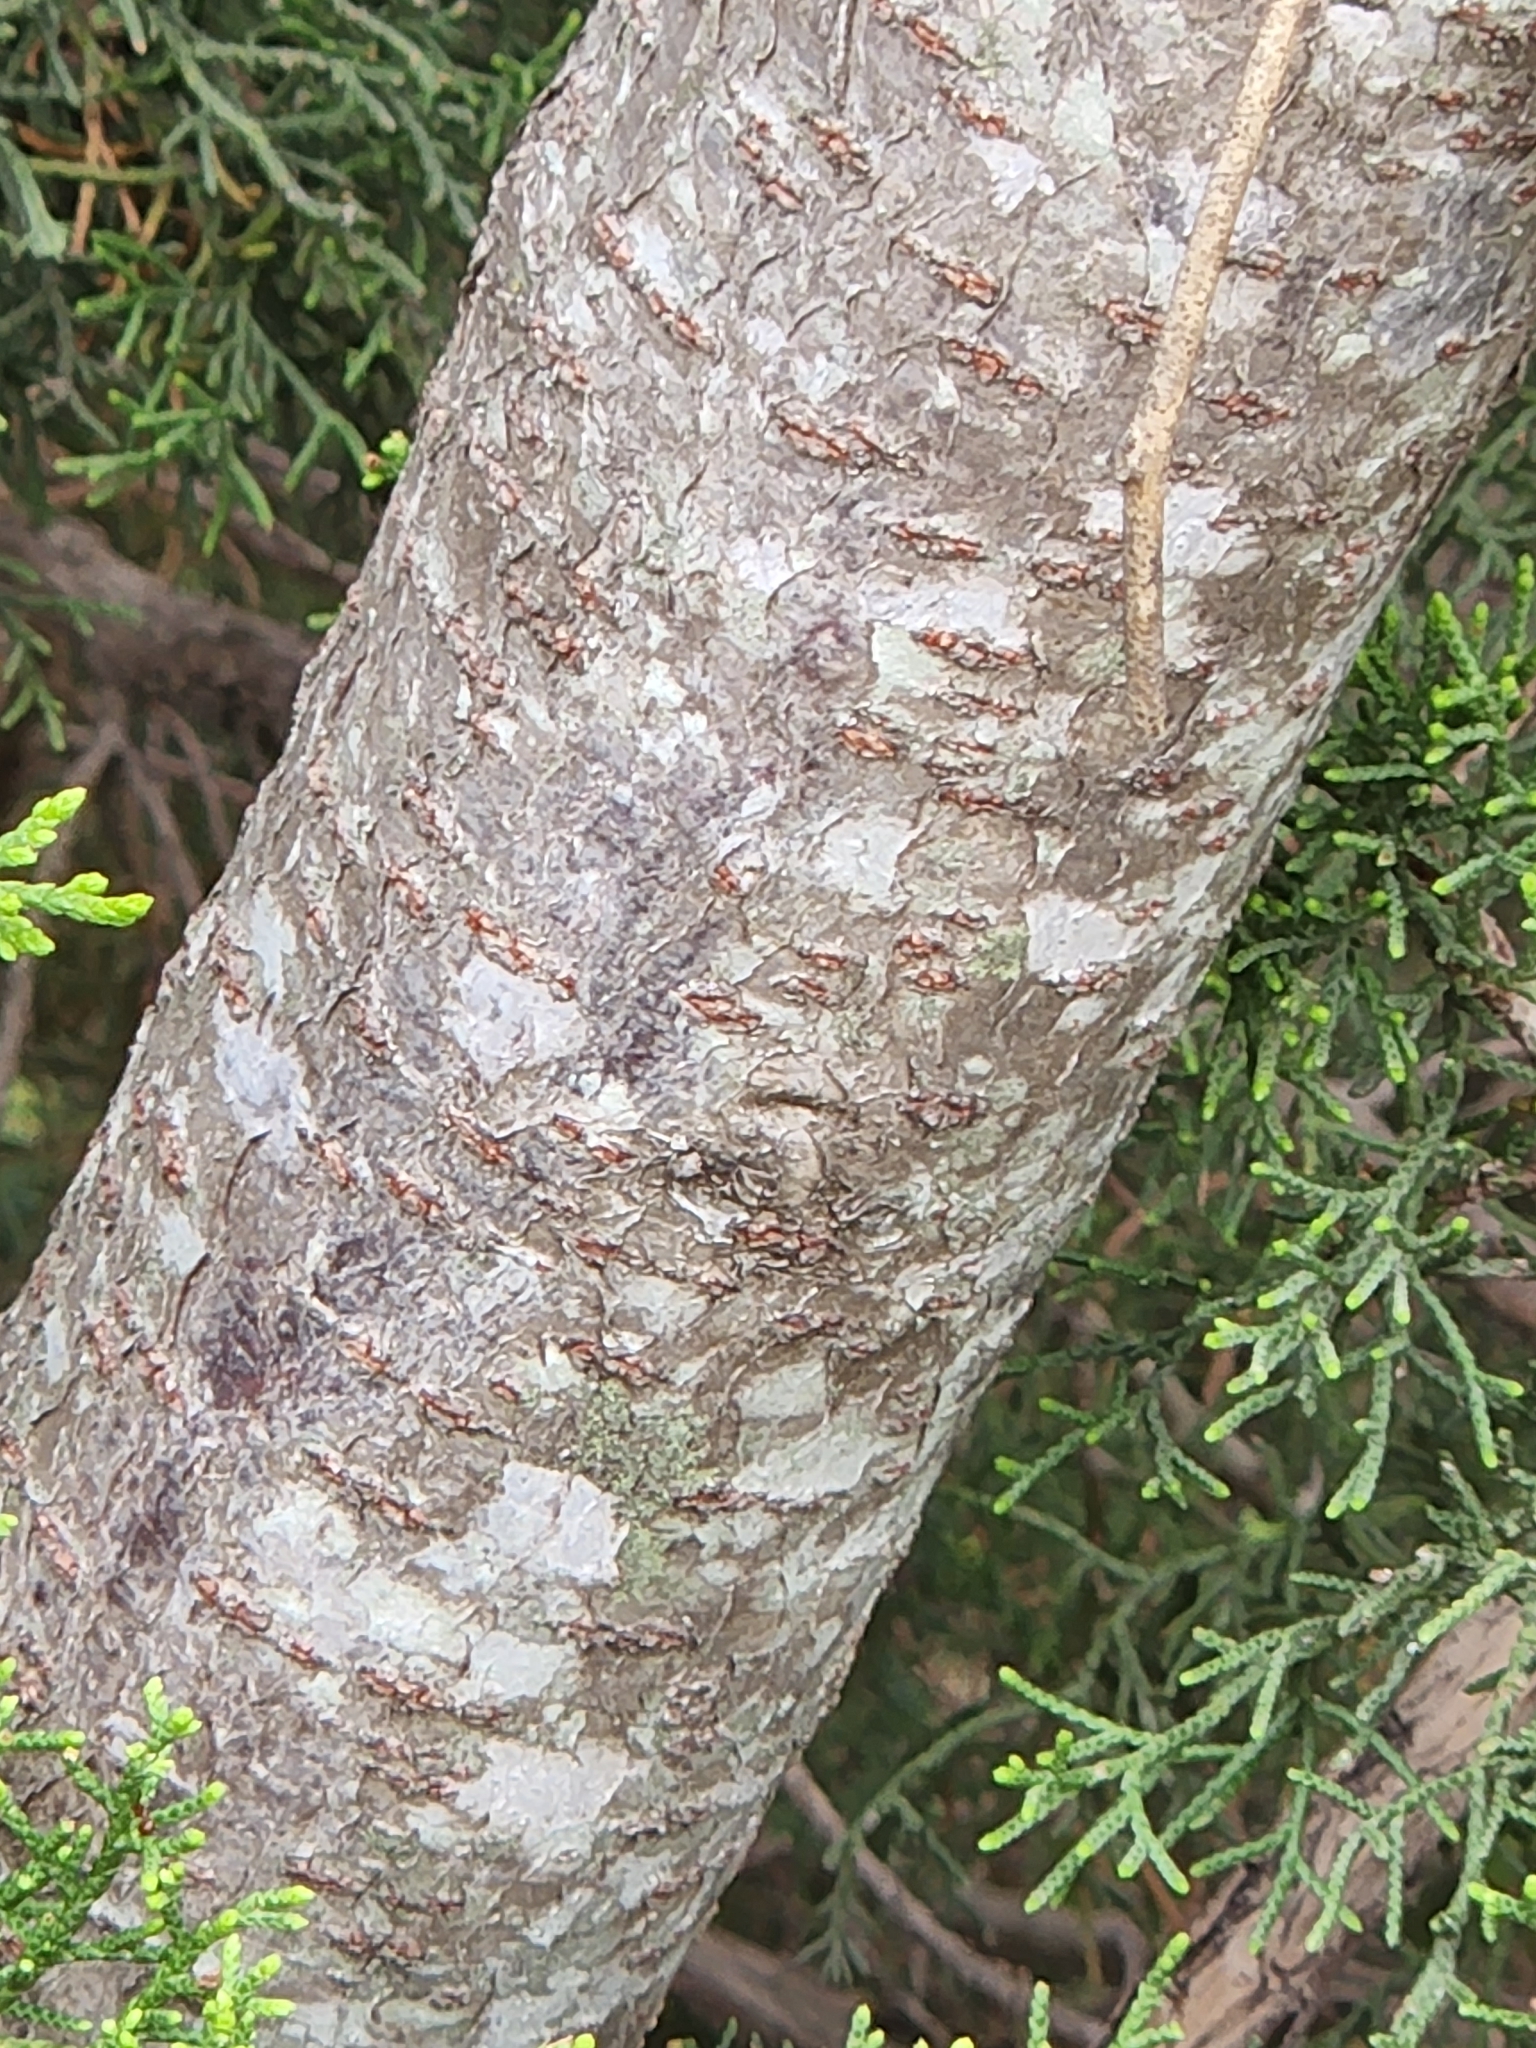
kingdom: Plantae
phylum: Tracheophyta
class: Magnoliopsida
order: Sapindales
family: Anacardiaceae
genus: Rhus
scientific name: Rhus lanceolata
